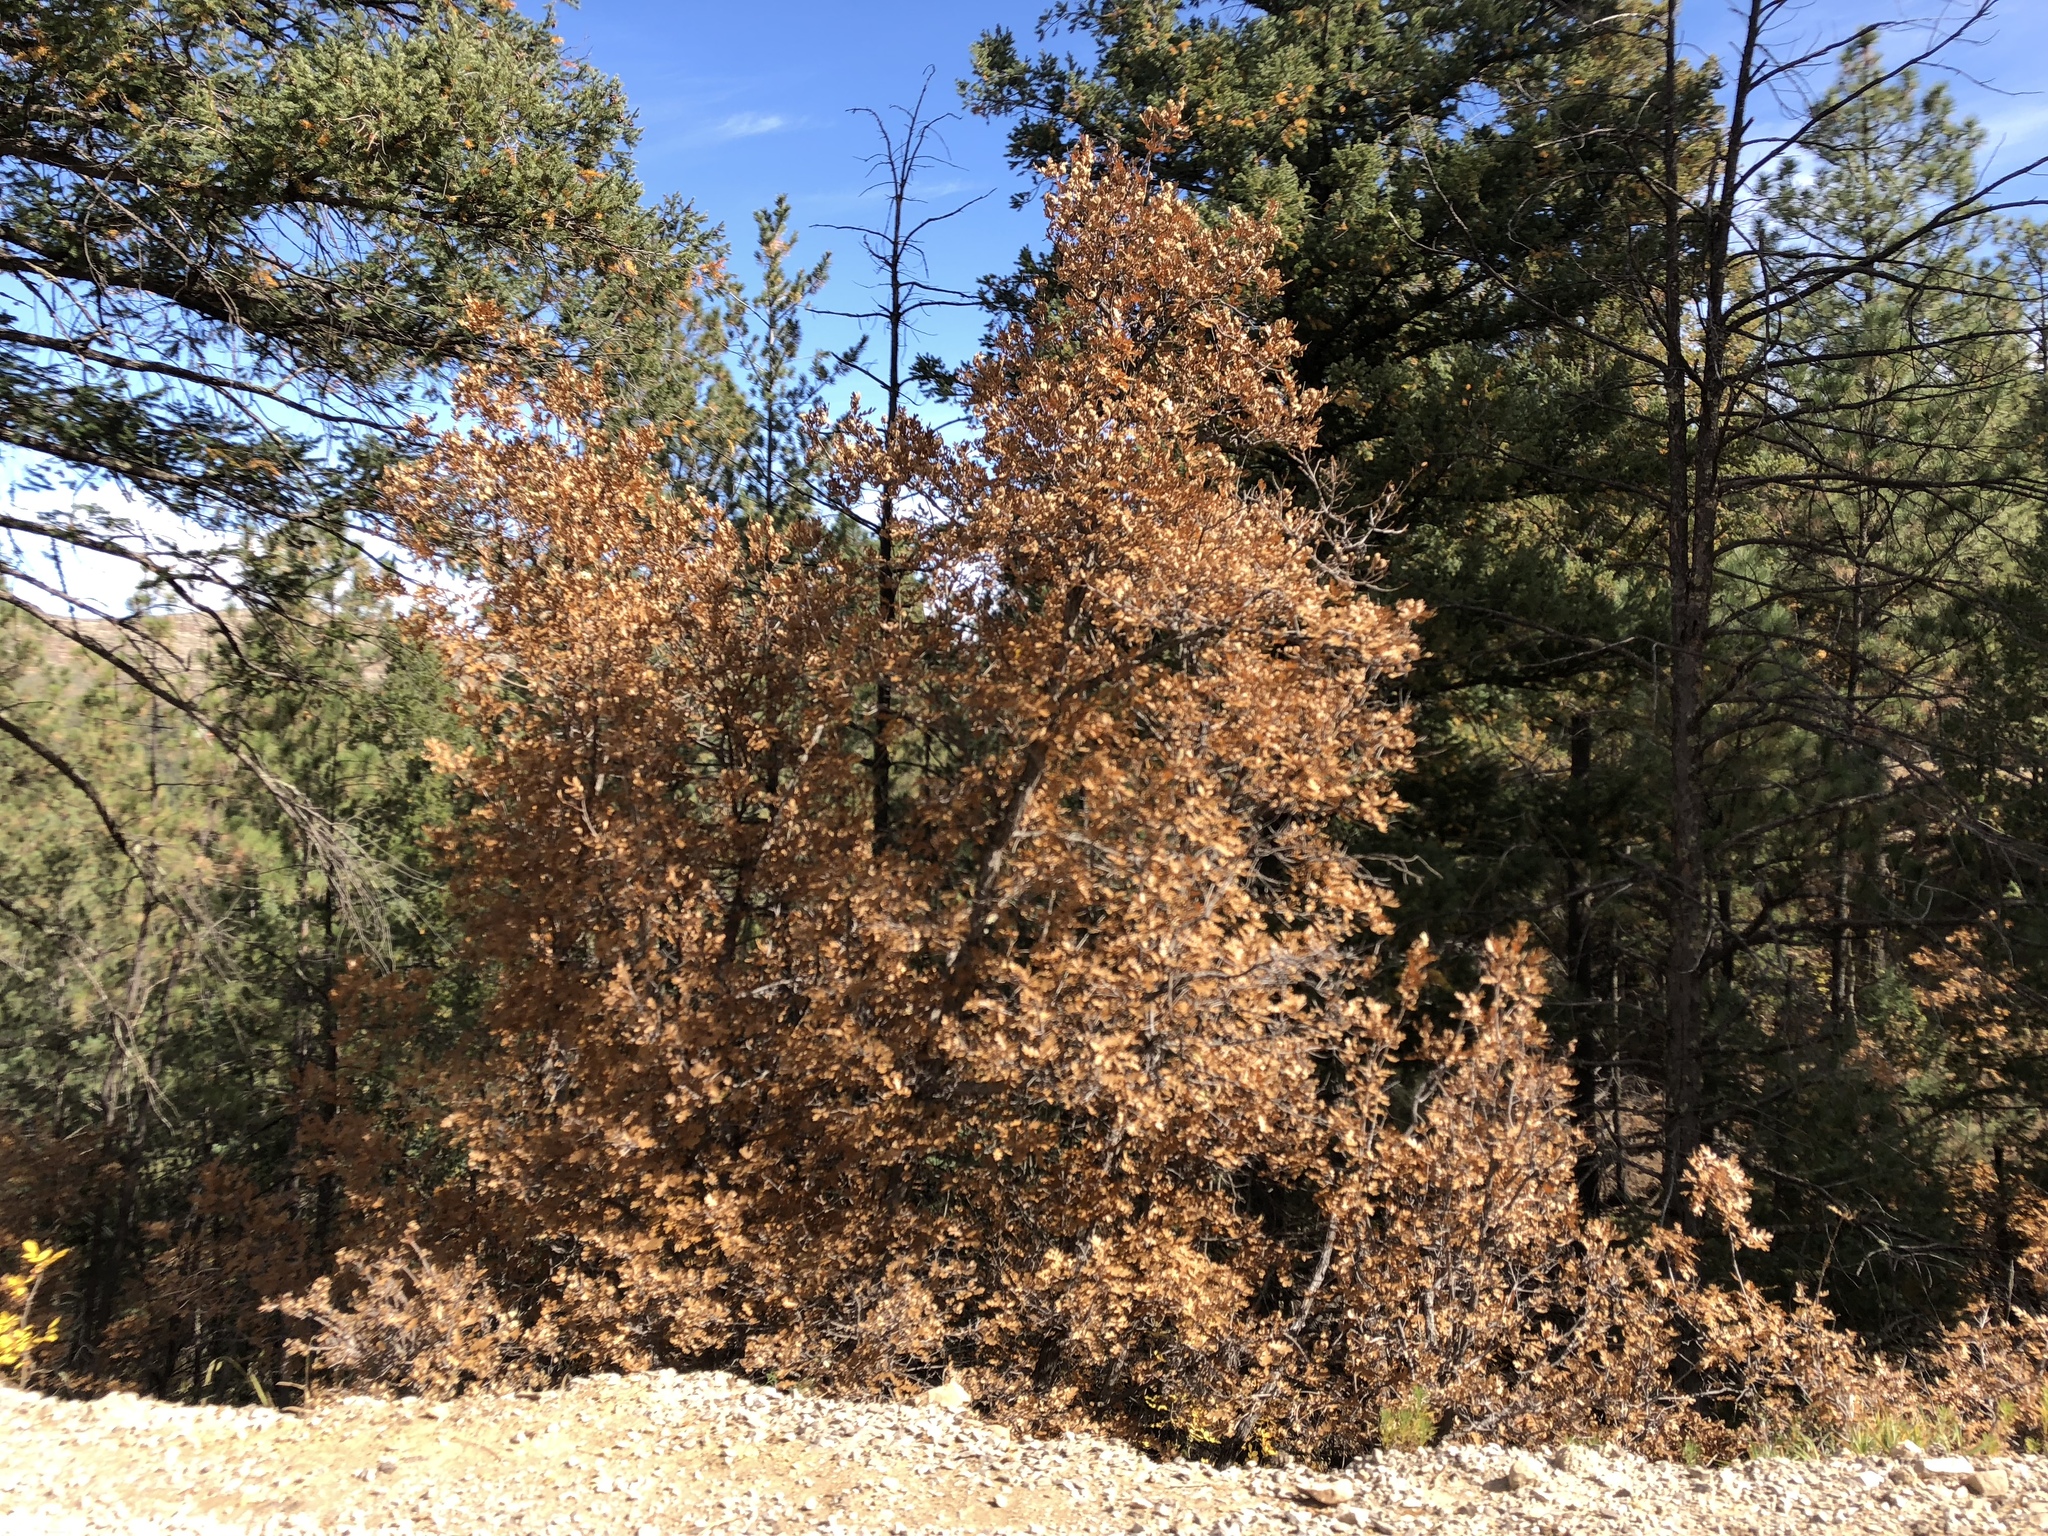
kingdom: Plantae
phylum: Tracheophyta
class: Magnoliopsida
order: Fagales
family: Fagaceae
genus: Quercus
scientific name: Quercus gambelii
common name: Gambel oak
